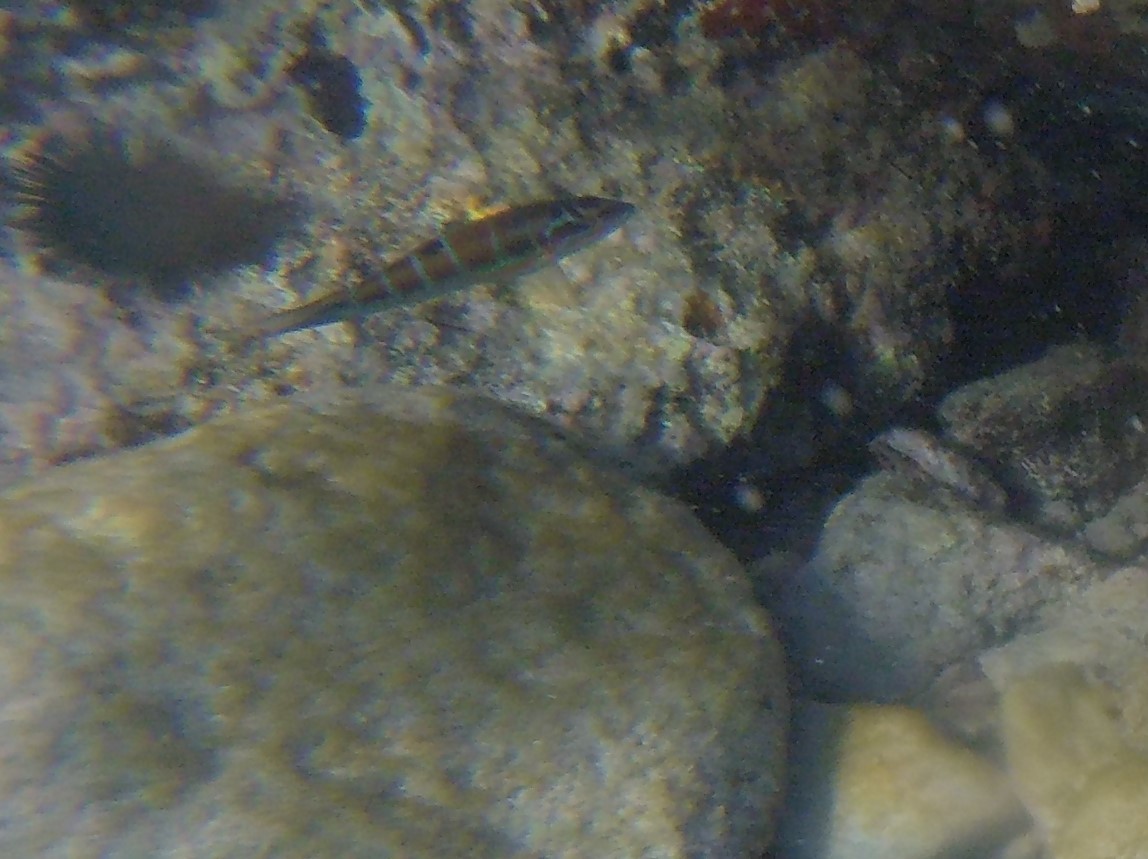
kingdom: Animalia
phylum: Chordata
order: Perciformes
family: Labridae
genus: Thalassoma
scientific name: Thalassoma pavo
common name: Ornate wrasse
